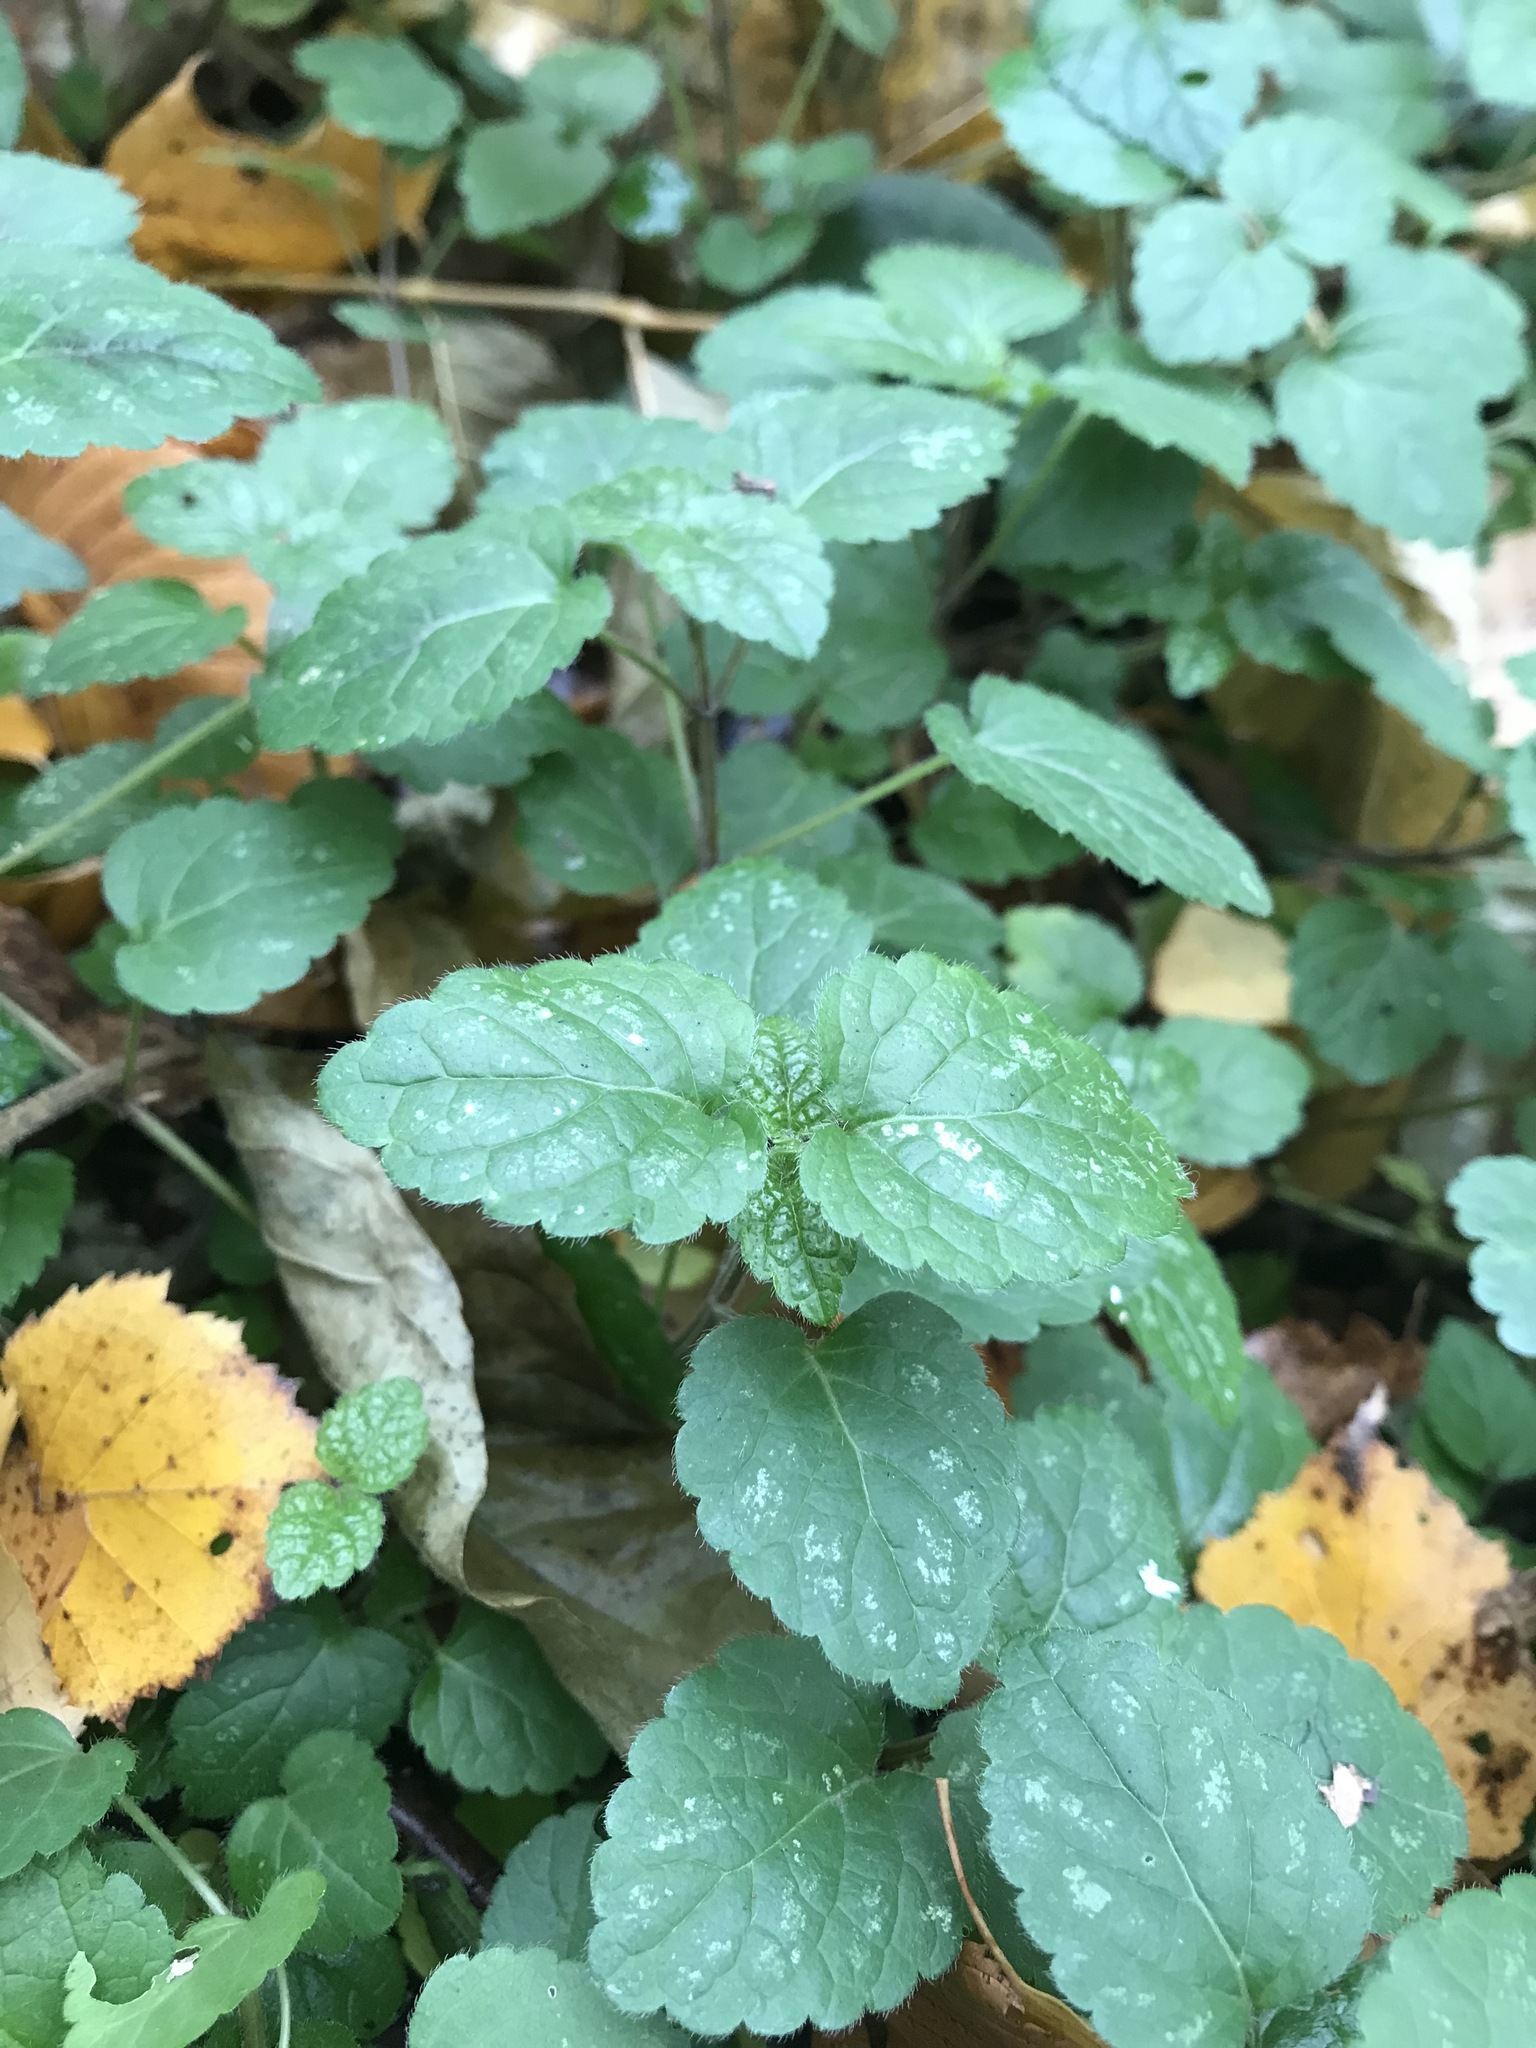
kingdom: Plantae
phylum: Tracheophyta
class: Magnoliopsida
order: Lamiales
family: Lamiaceae
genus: Lamium
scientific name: Lamium galeobdolon
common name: Yellow archangel
